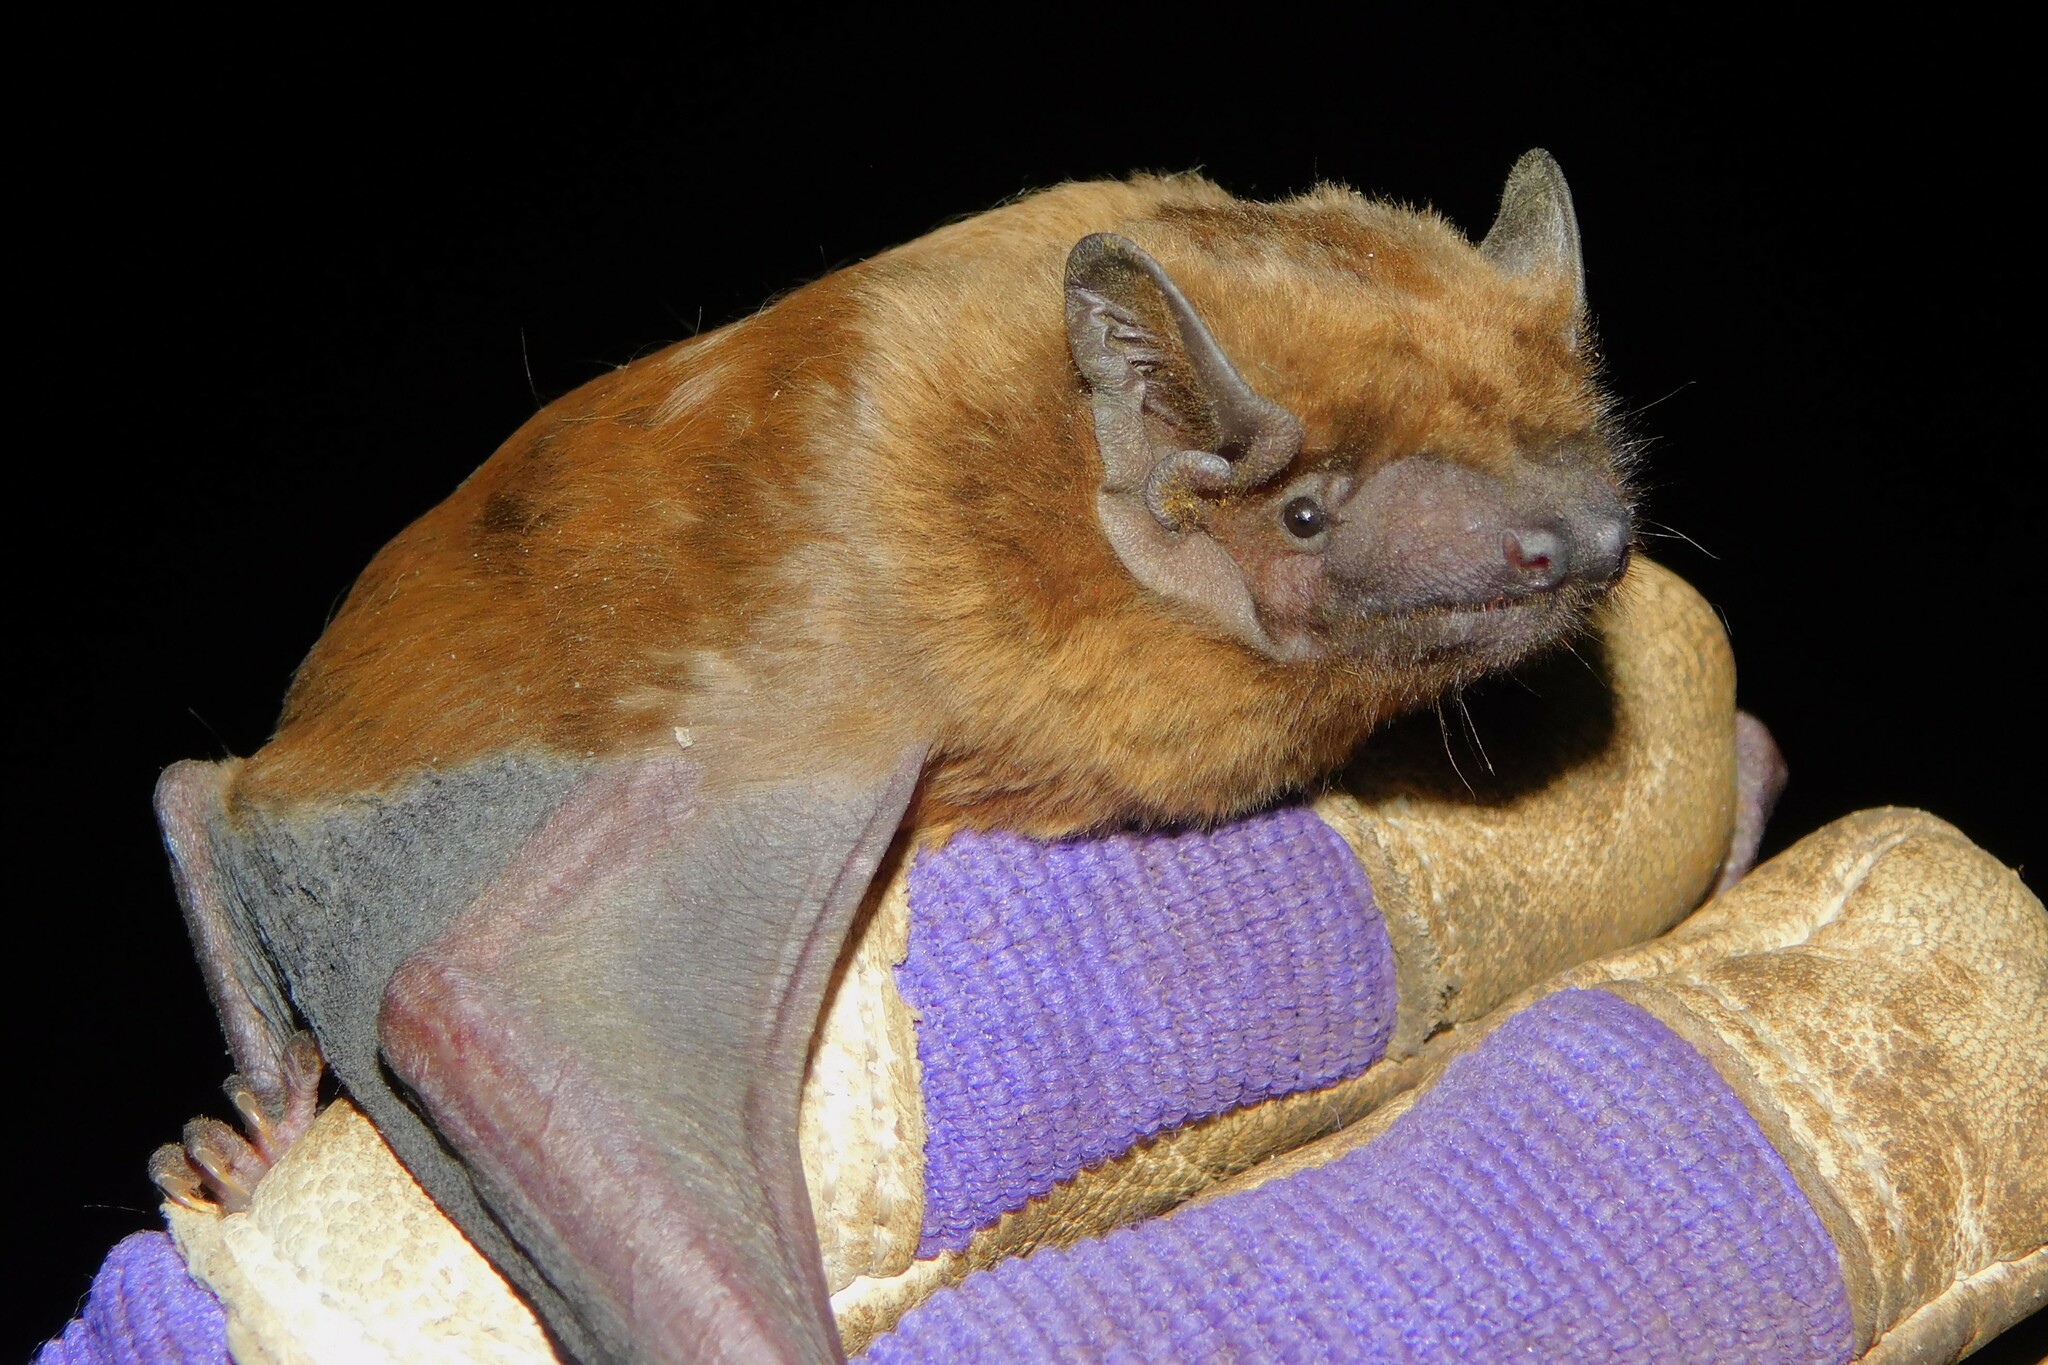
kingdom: Animalia
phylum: Chordata
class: Mammalia
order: Chiroptera
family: Vespertilionidae
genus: Nyctalus
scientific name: Nyctalus noctula
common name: Noctule
